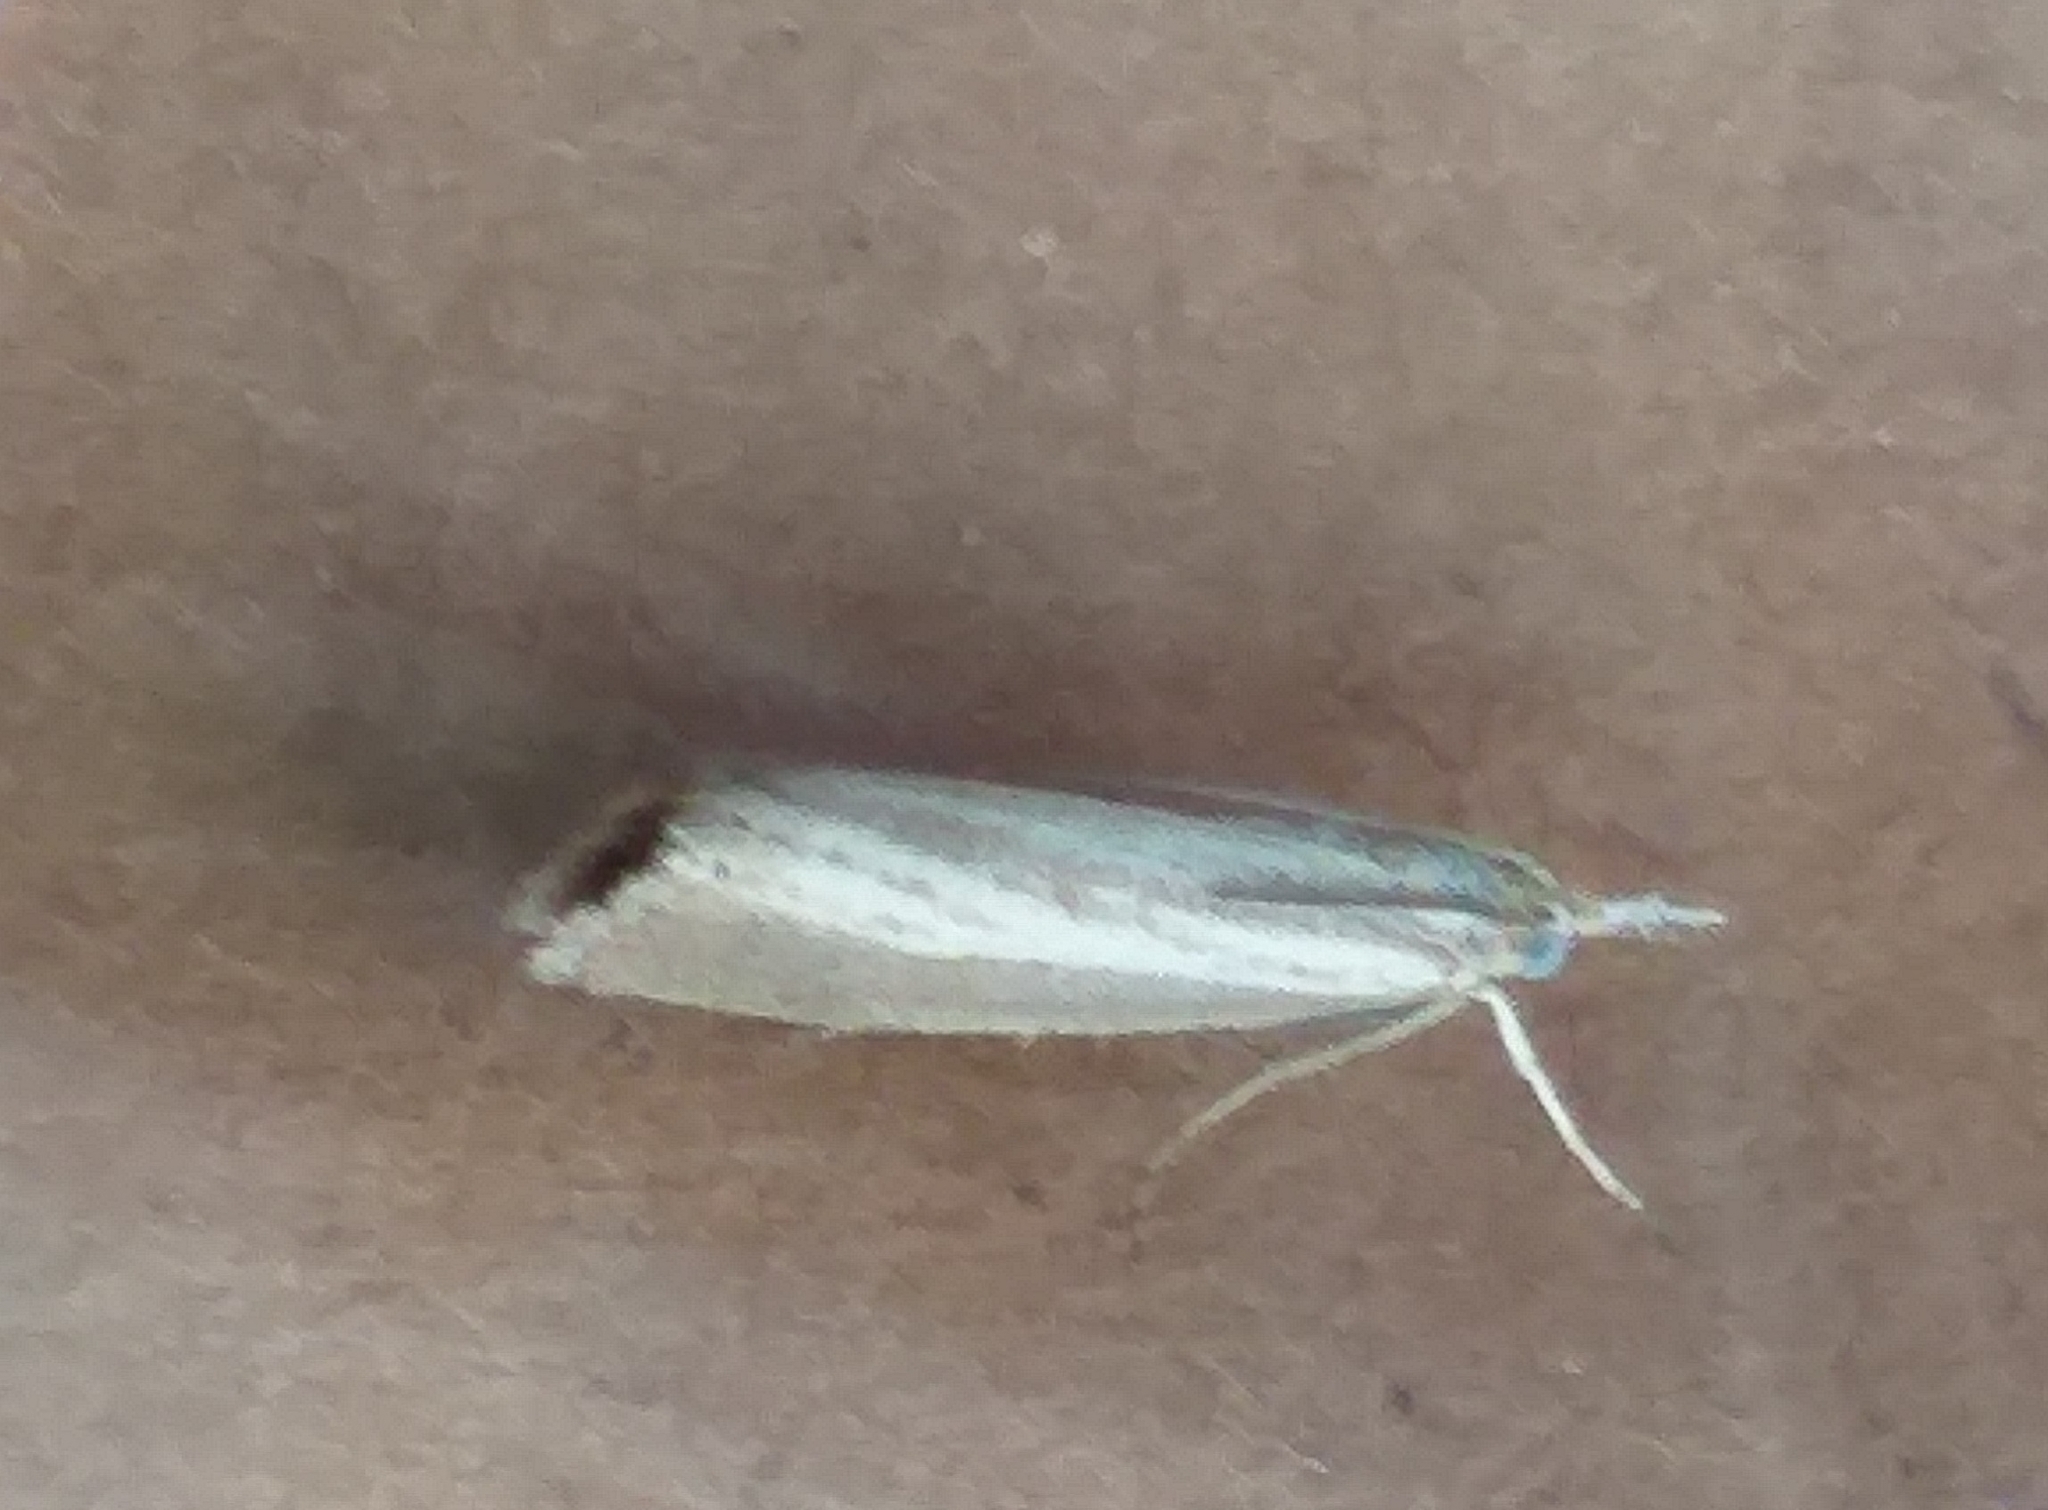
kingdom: Animalia
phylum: Arthropoda
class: Insecta
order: Lepidoptera
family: Crambidae
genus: Agriphila
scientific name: Agriphila straminella
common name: Straw grass-veneer
